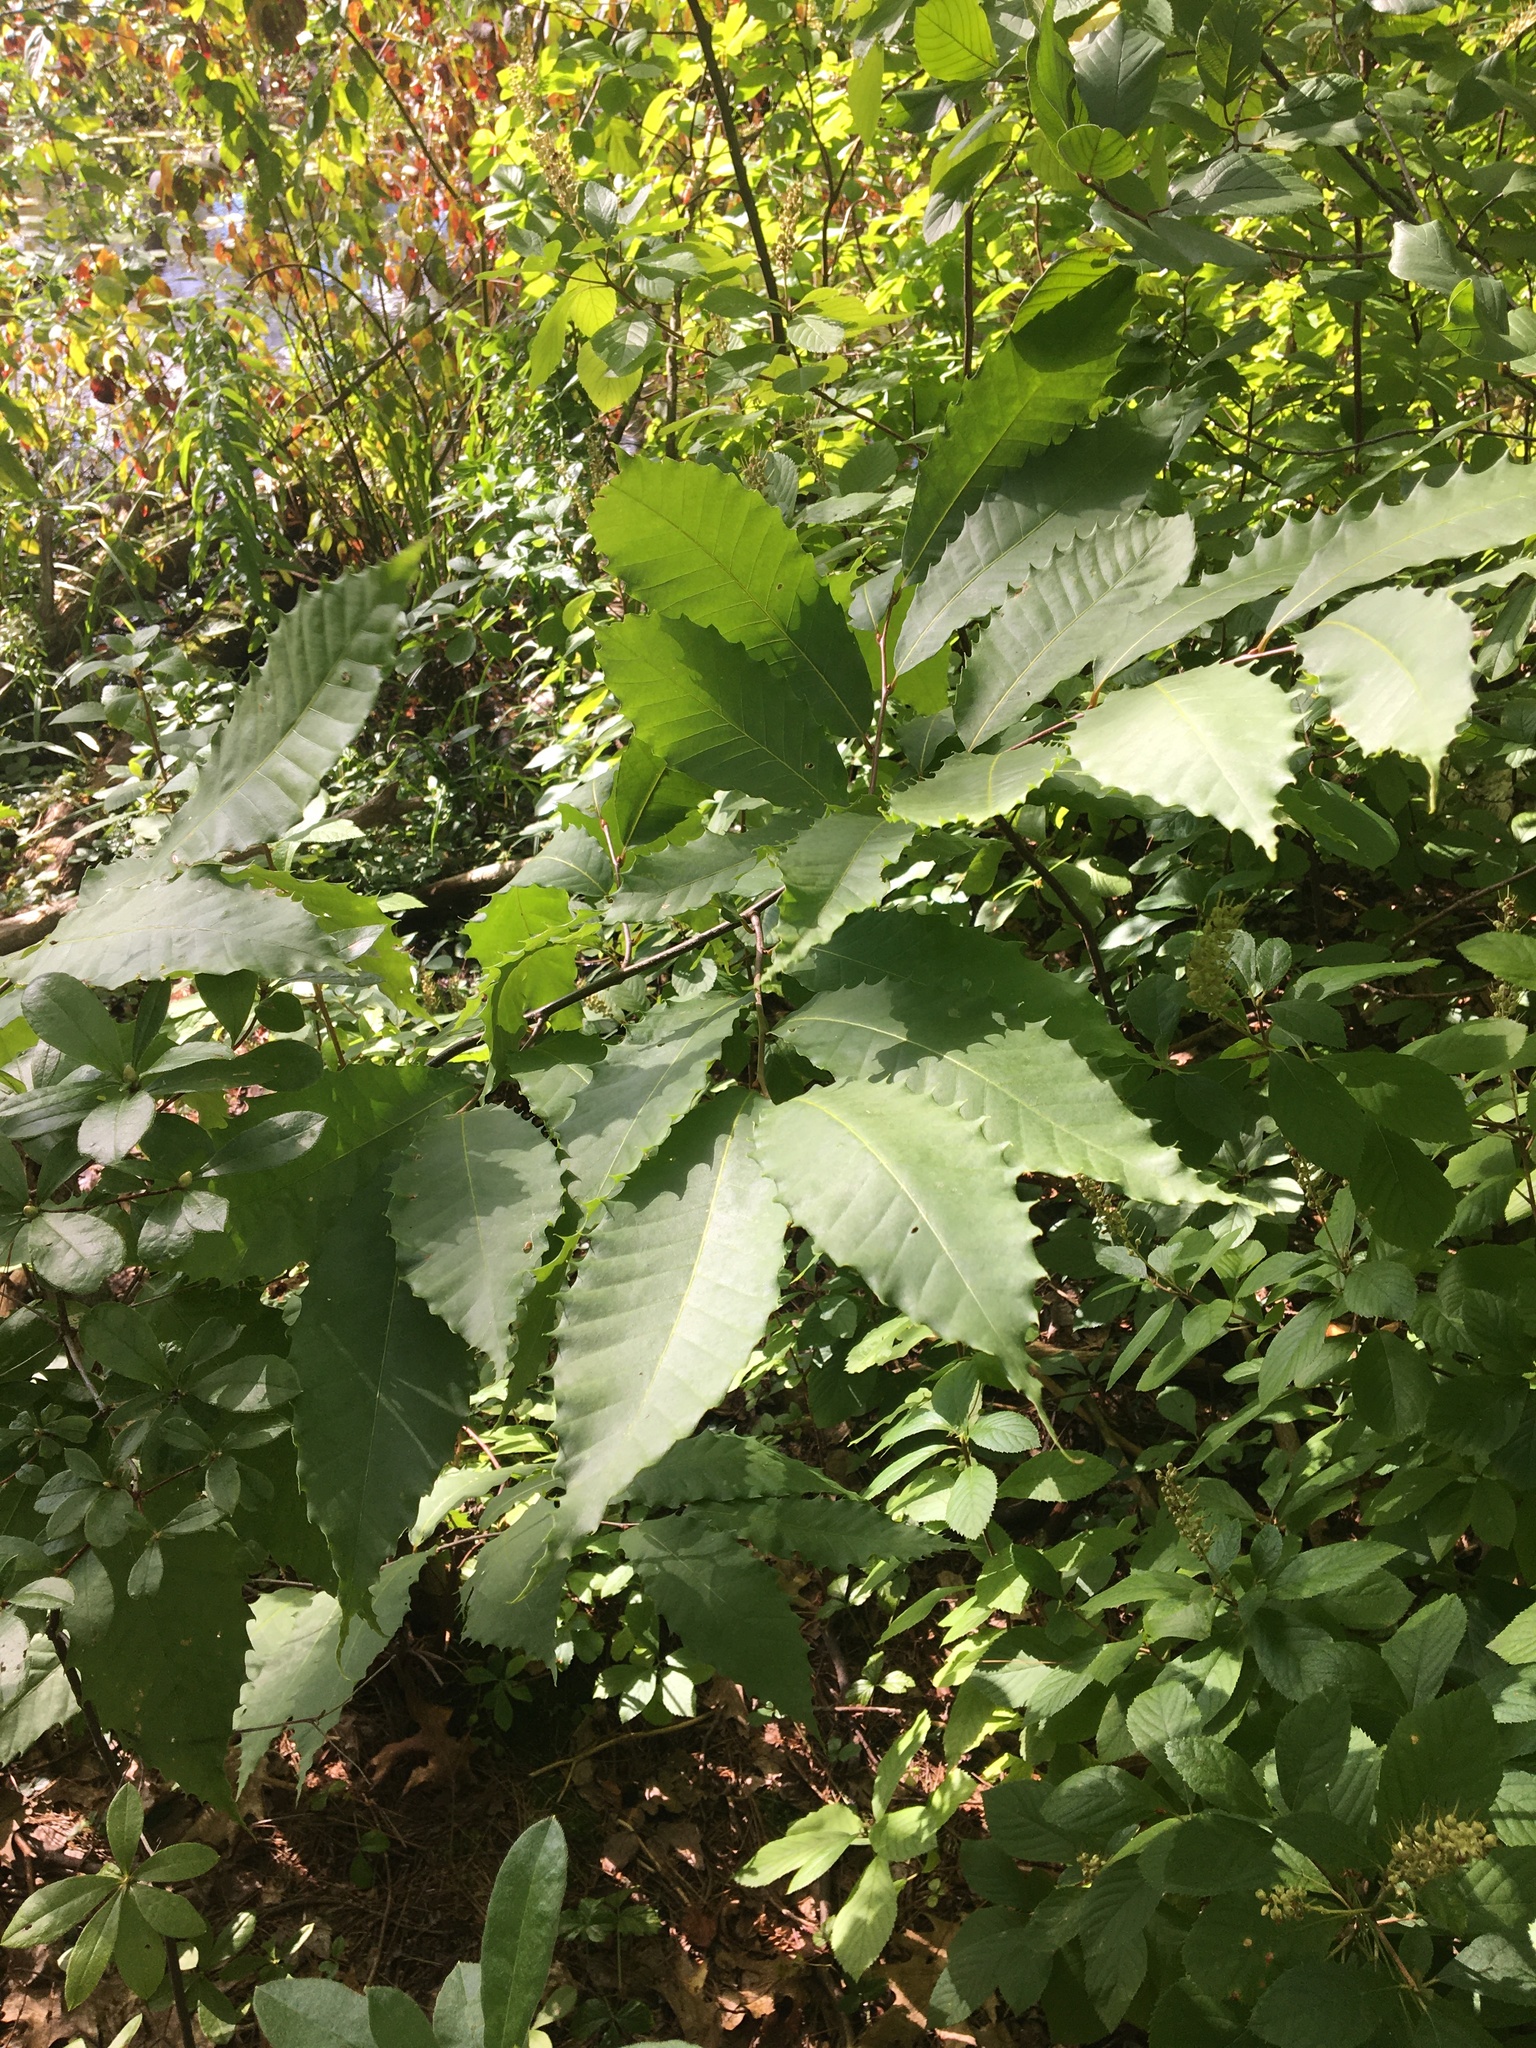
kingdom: Plantae
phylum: Tracheophyta
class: Magnoliopsida
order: Fagales
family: Fagaceae
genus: Castanea
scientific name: Castanea dentata
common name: American chestnut
